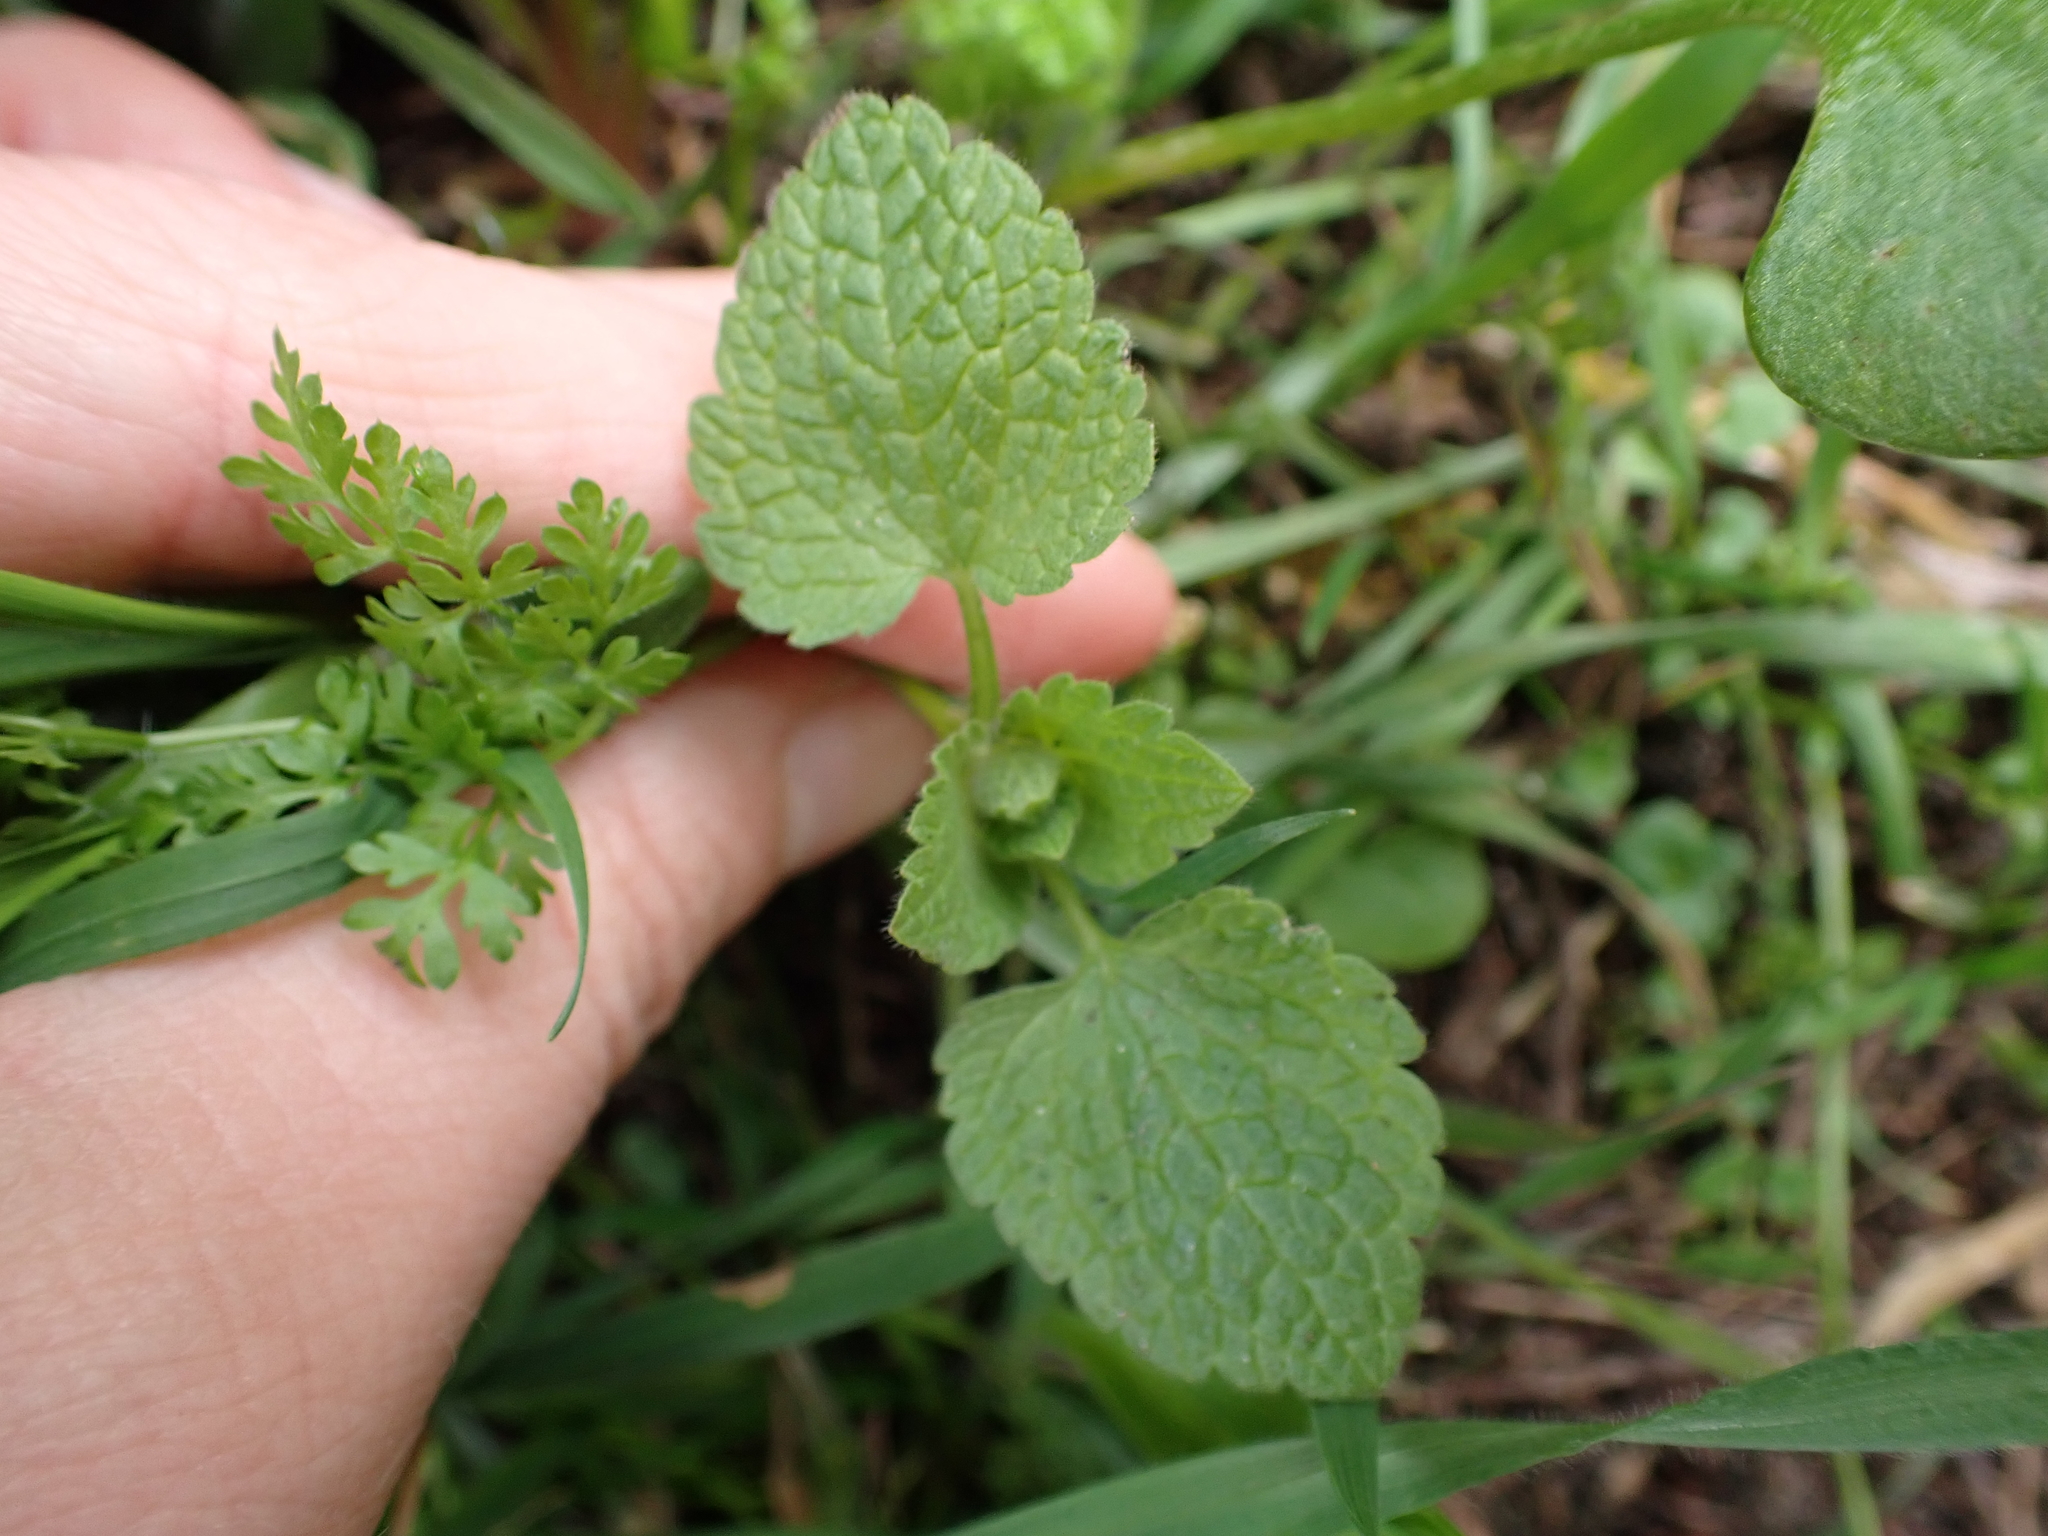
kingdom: Plantae
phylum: Tracheophyta
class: Magnoliopsida
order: Lamiales
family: Lamiaceae
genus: Lamium
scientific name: Lamium purpureum
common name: Red dead-nettle
